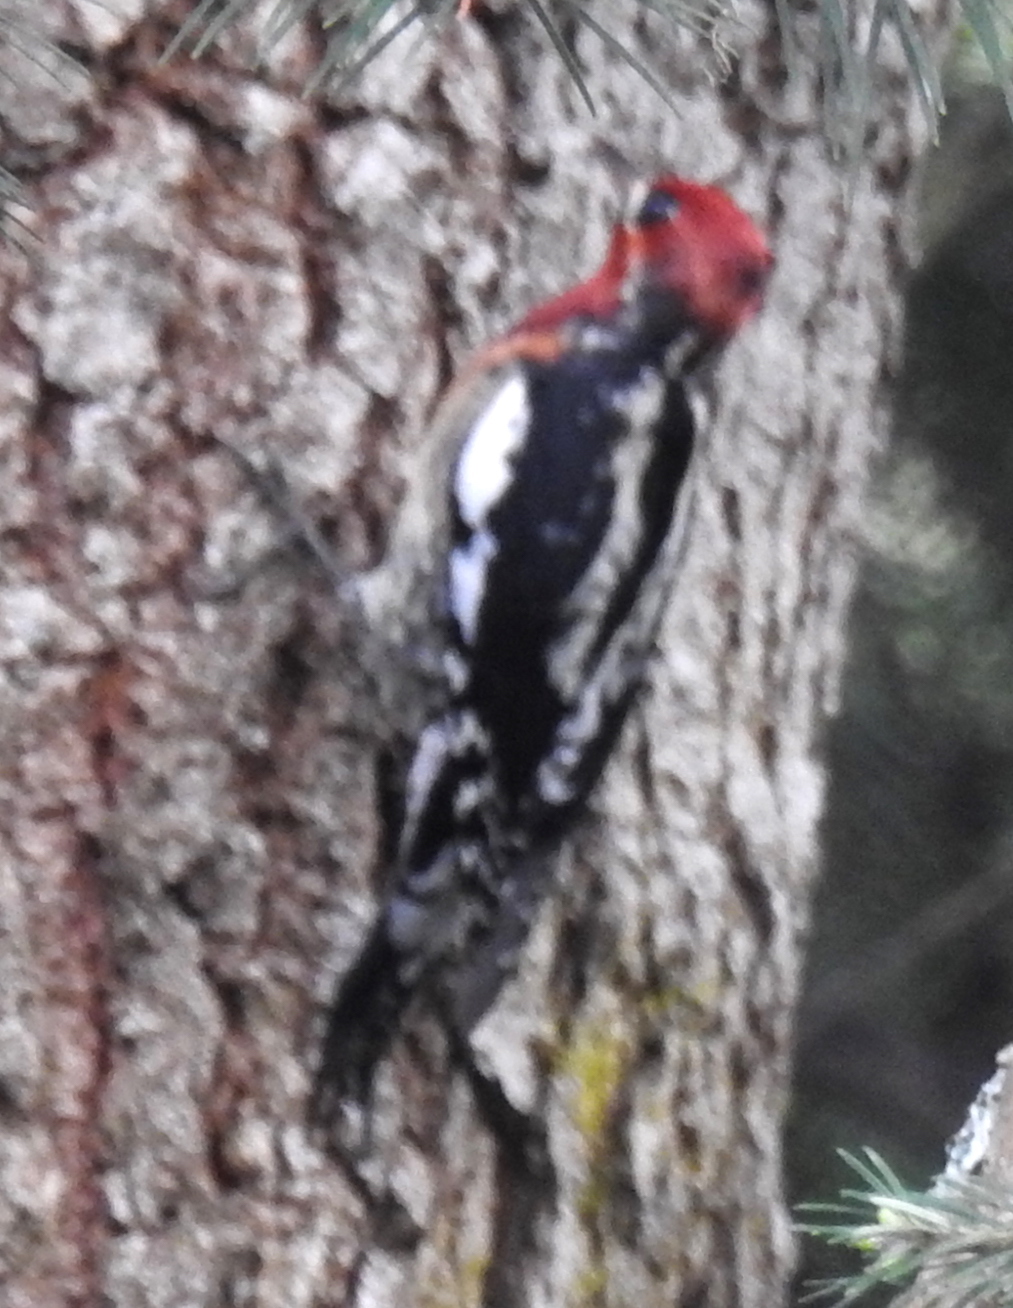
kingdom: Animalia
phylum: Chordata
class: Aves
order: Piciformes
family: Picidae
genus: Sphyrapicus
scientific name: Sphyrapicus
